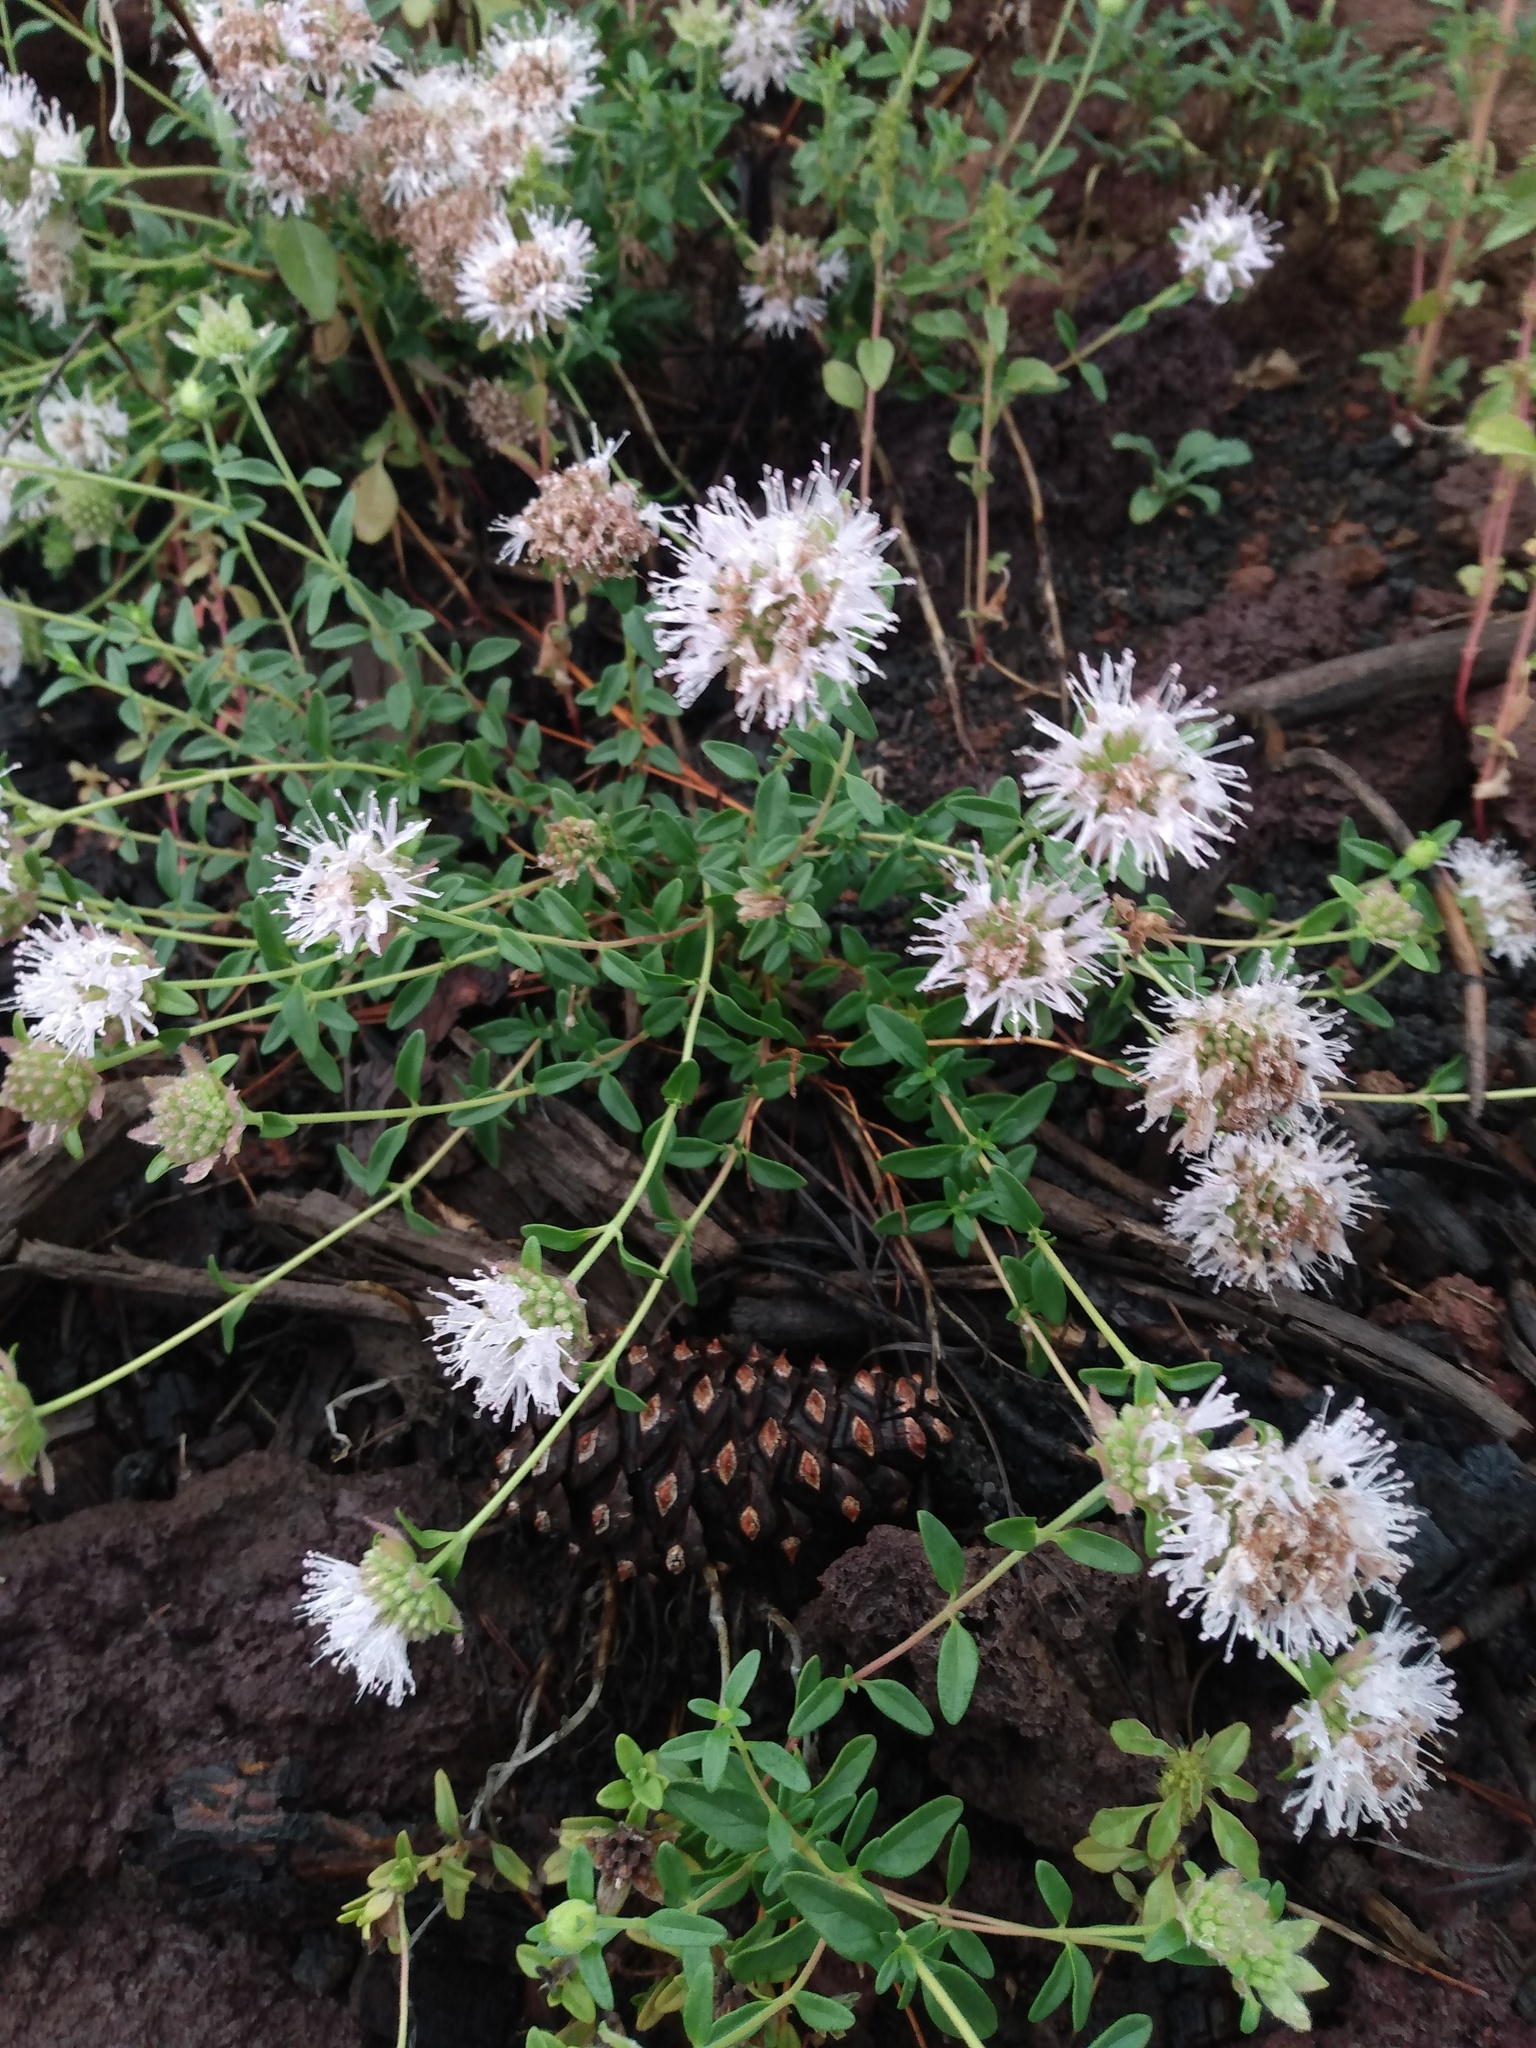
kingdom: Plantae
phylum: Tracheophyta
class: Magnoliopsida
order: Lamiales
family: Lamiaceae
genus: Monardella
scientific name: Monardella odoratissima
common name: Pacific monardella
